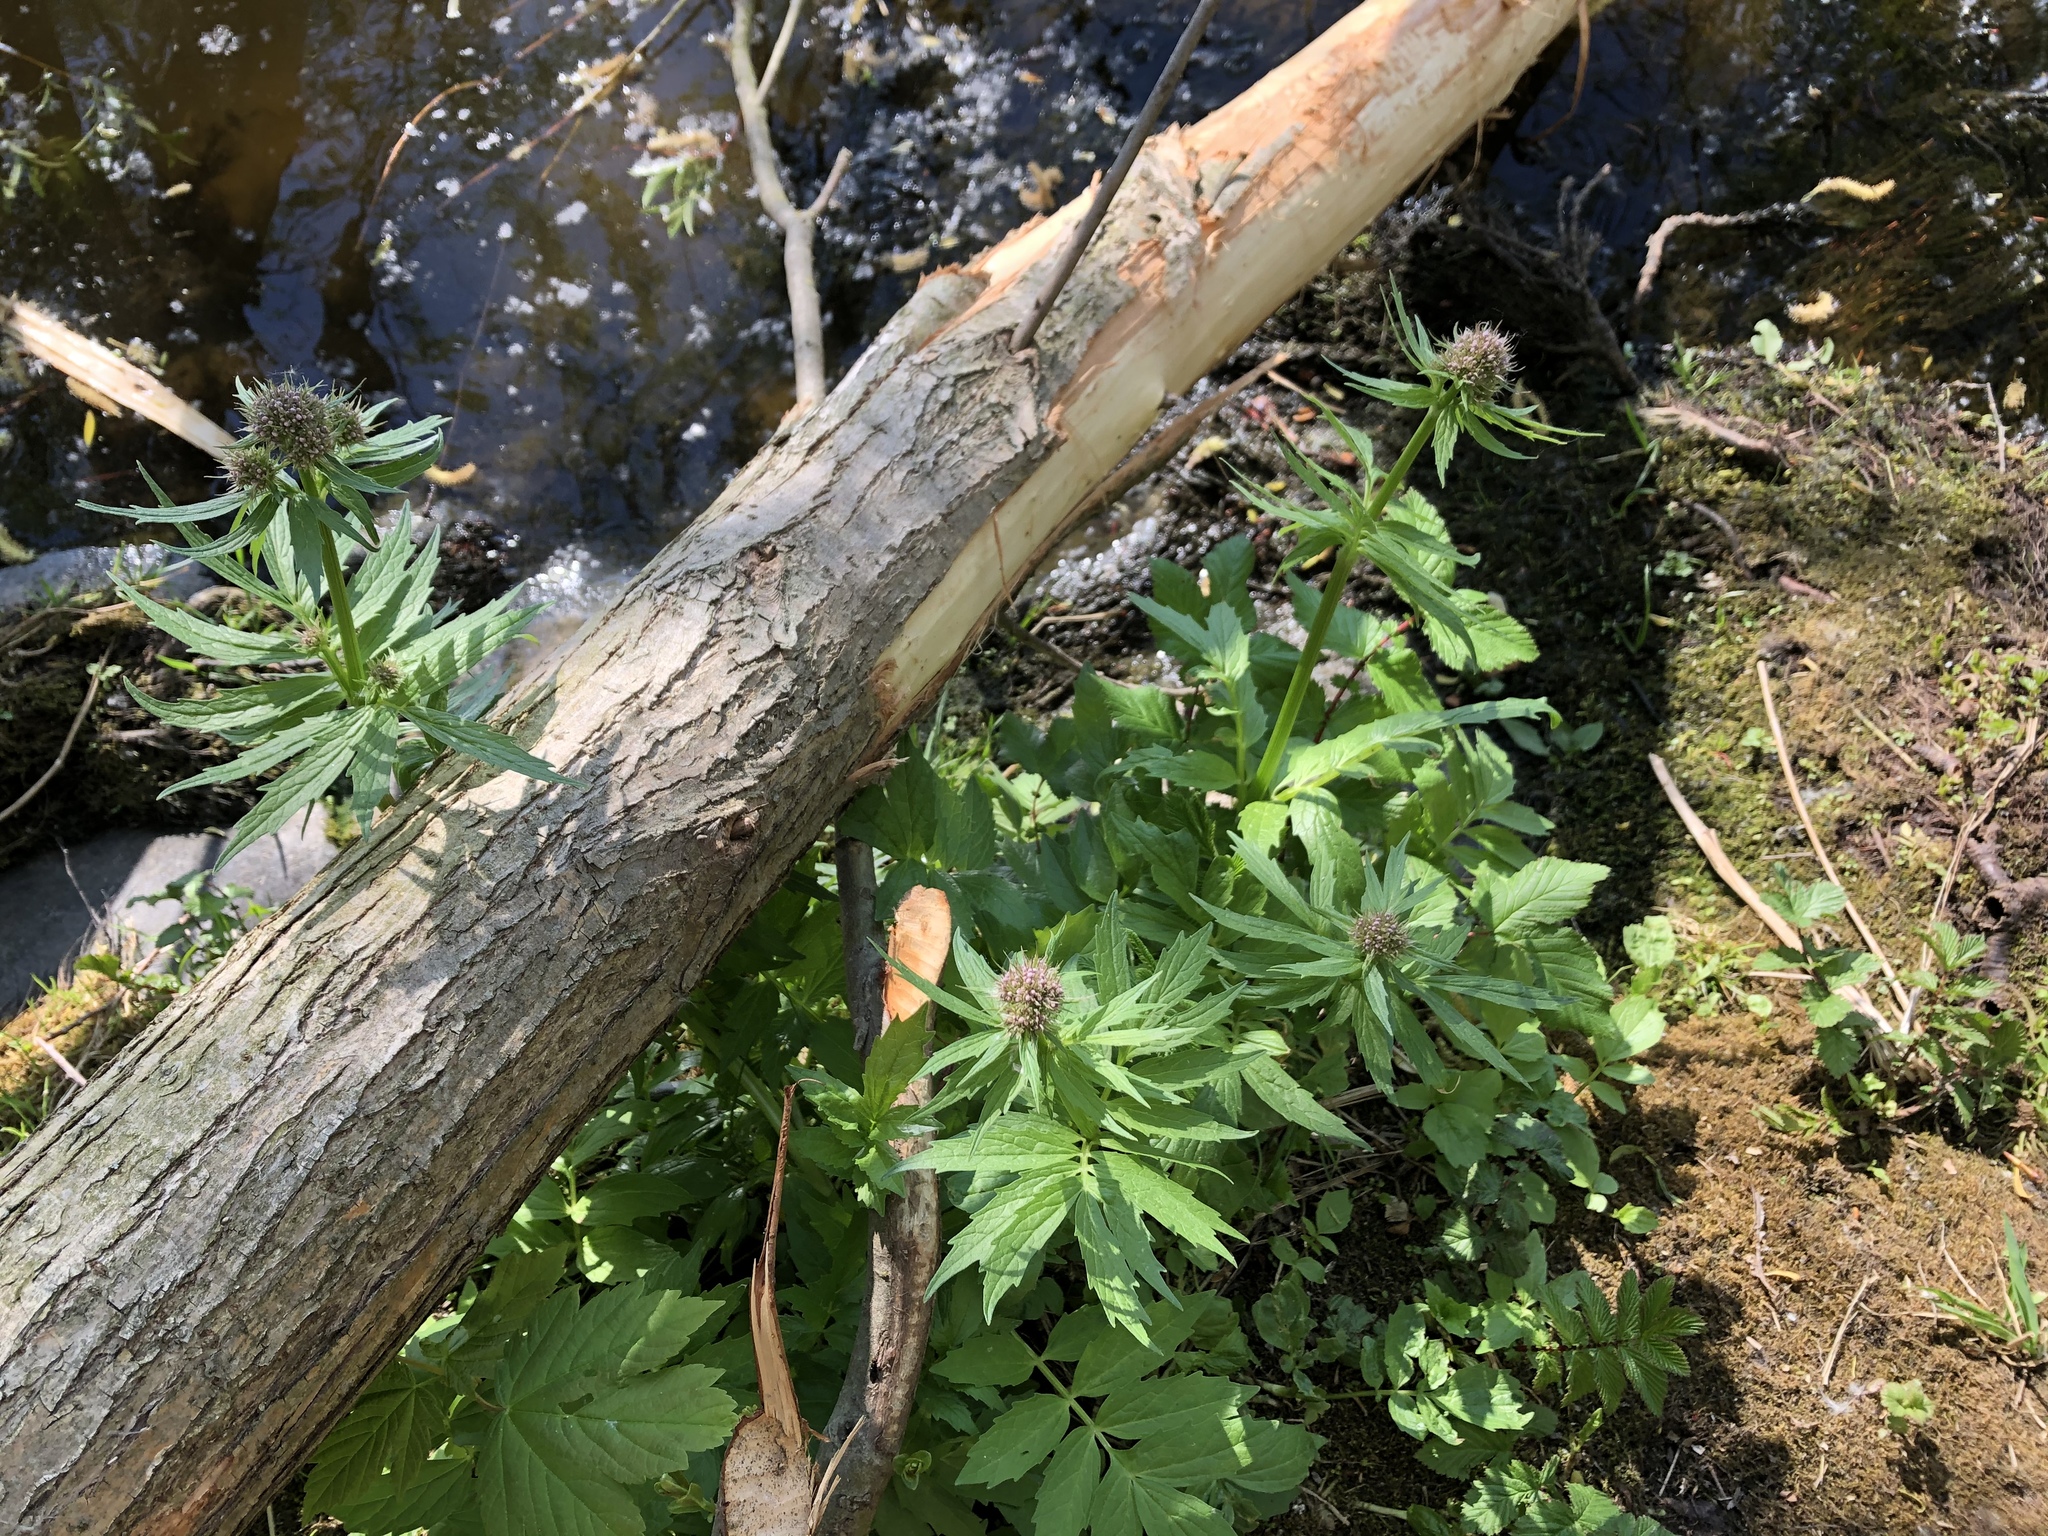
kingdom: Plantae
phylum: Tracheophyta
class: Magnoliopsida
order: Dipsacales
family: Caprifoliaceae
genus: Valeriana
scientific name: Valeriana officinalis
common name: Common valerian
